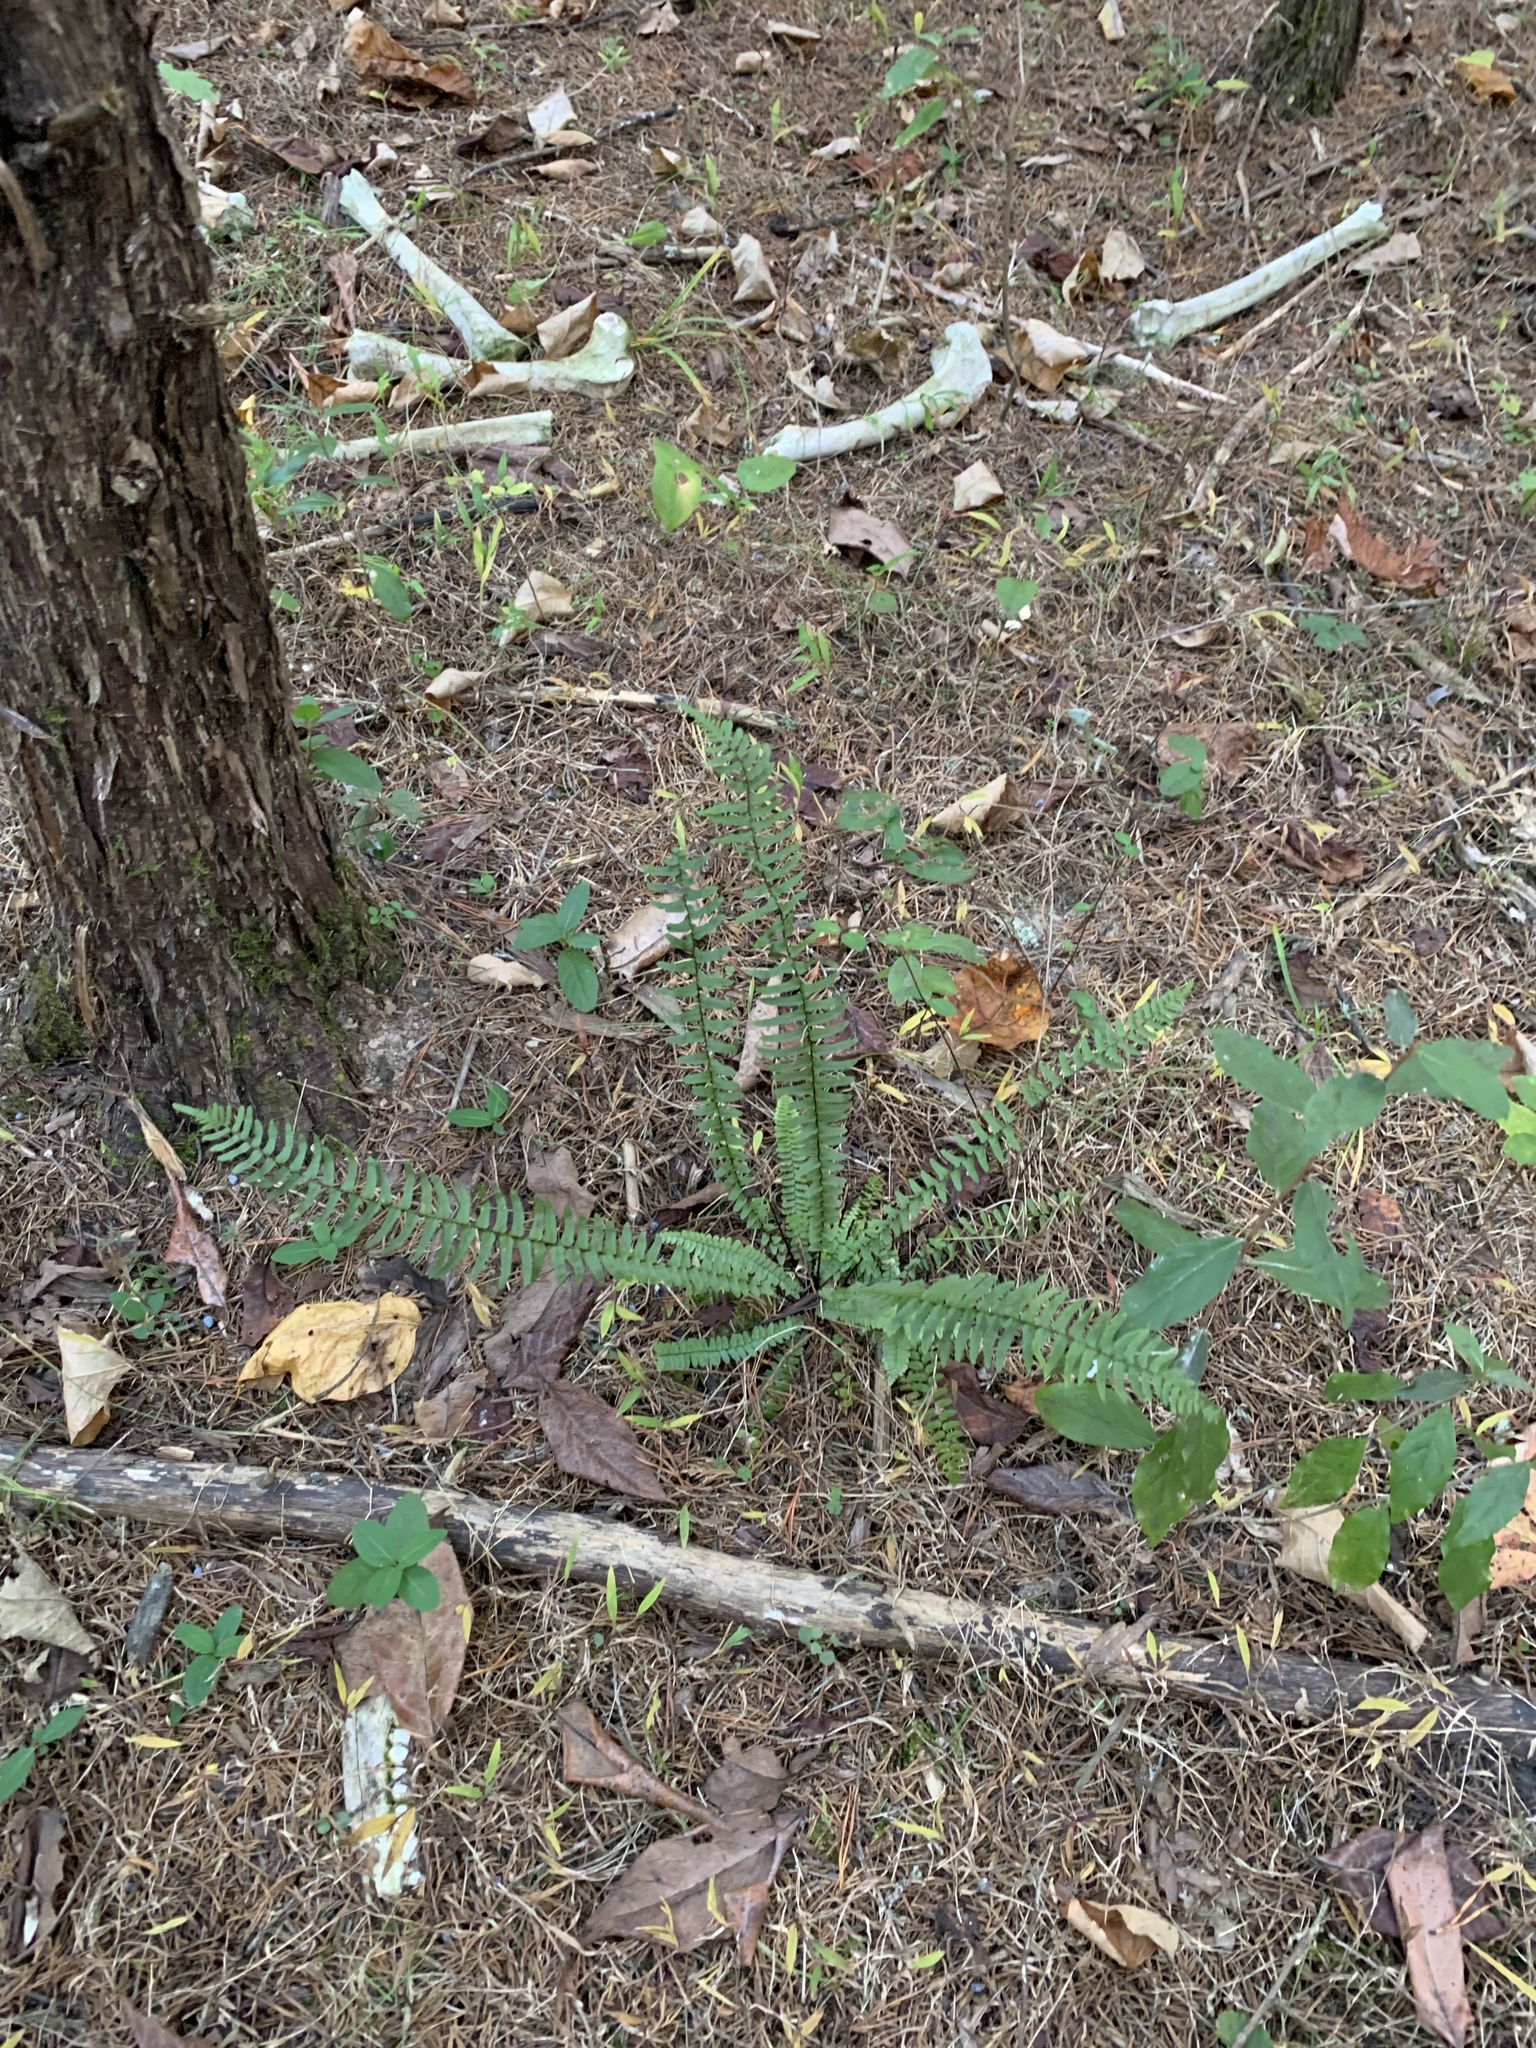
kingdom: Plantae
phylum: Tracheophyta
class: Polypodiopsida
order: Polypodiales
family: Aspleniaceae
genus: Asplenium
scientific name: Asplenium platyneuron
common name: Ebony spleenwort
